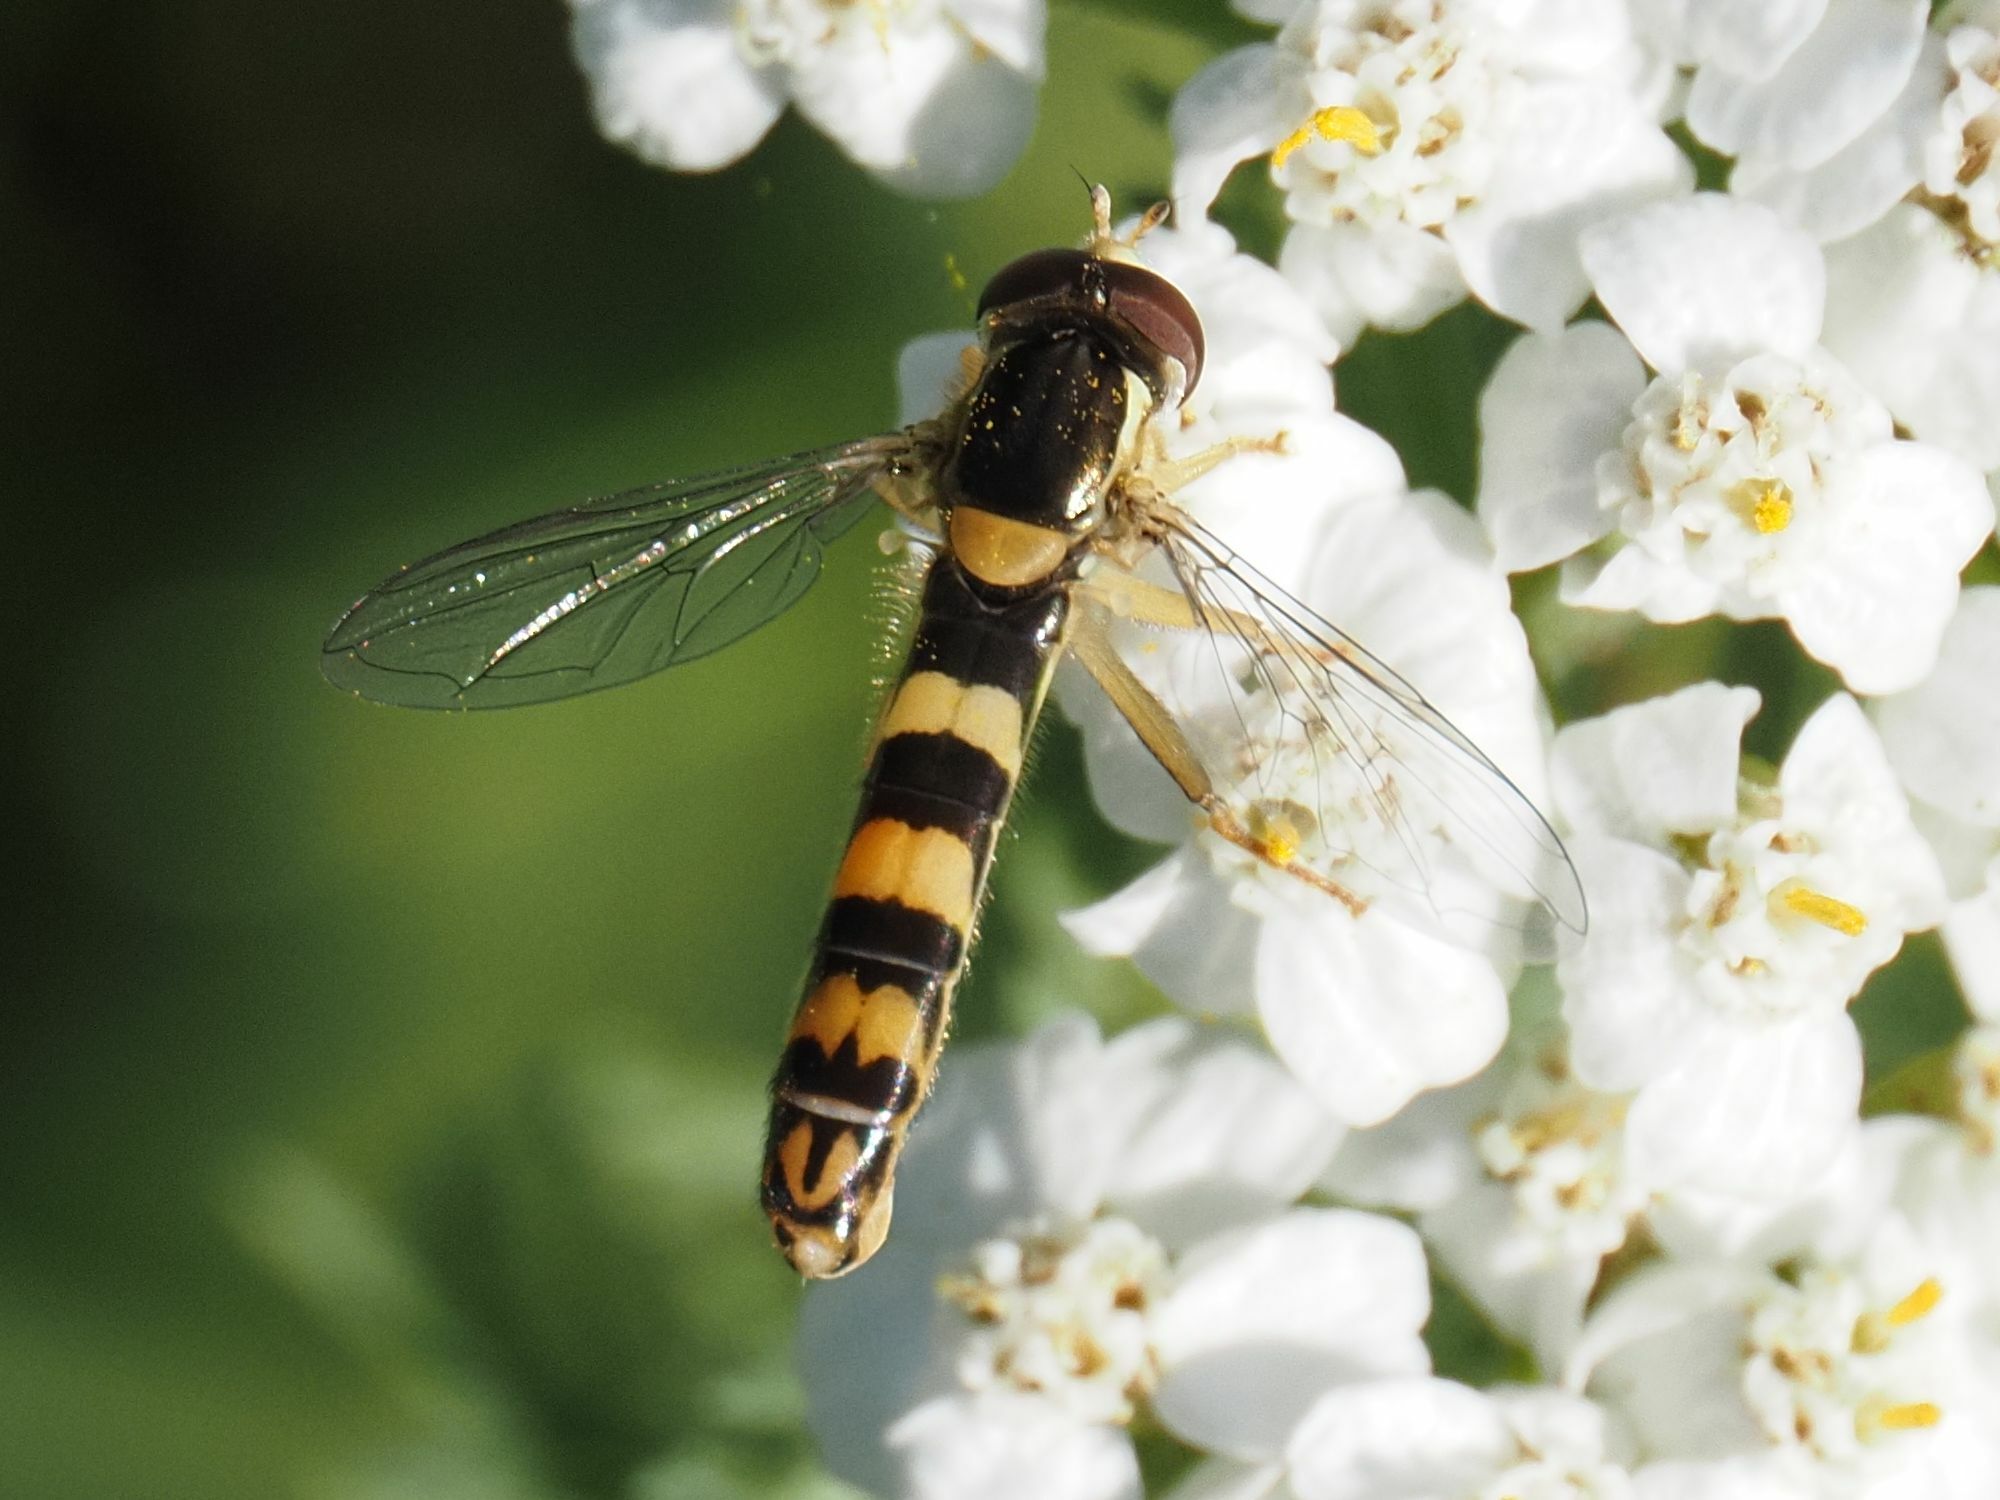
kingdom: Animalia
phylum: Arthropoda
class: Insecta
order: Diptera
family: Syrphidae
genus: Sphaerophoria
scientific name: Sphaerophoria scripta
